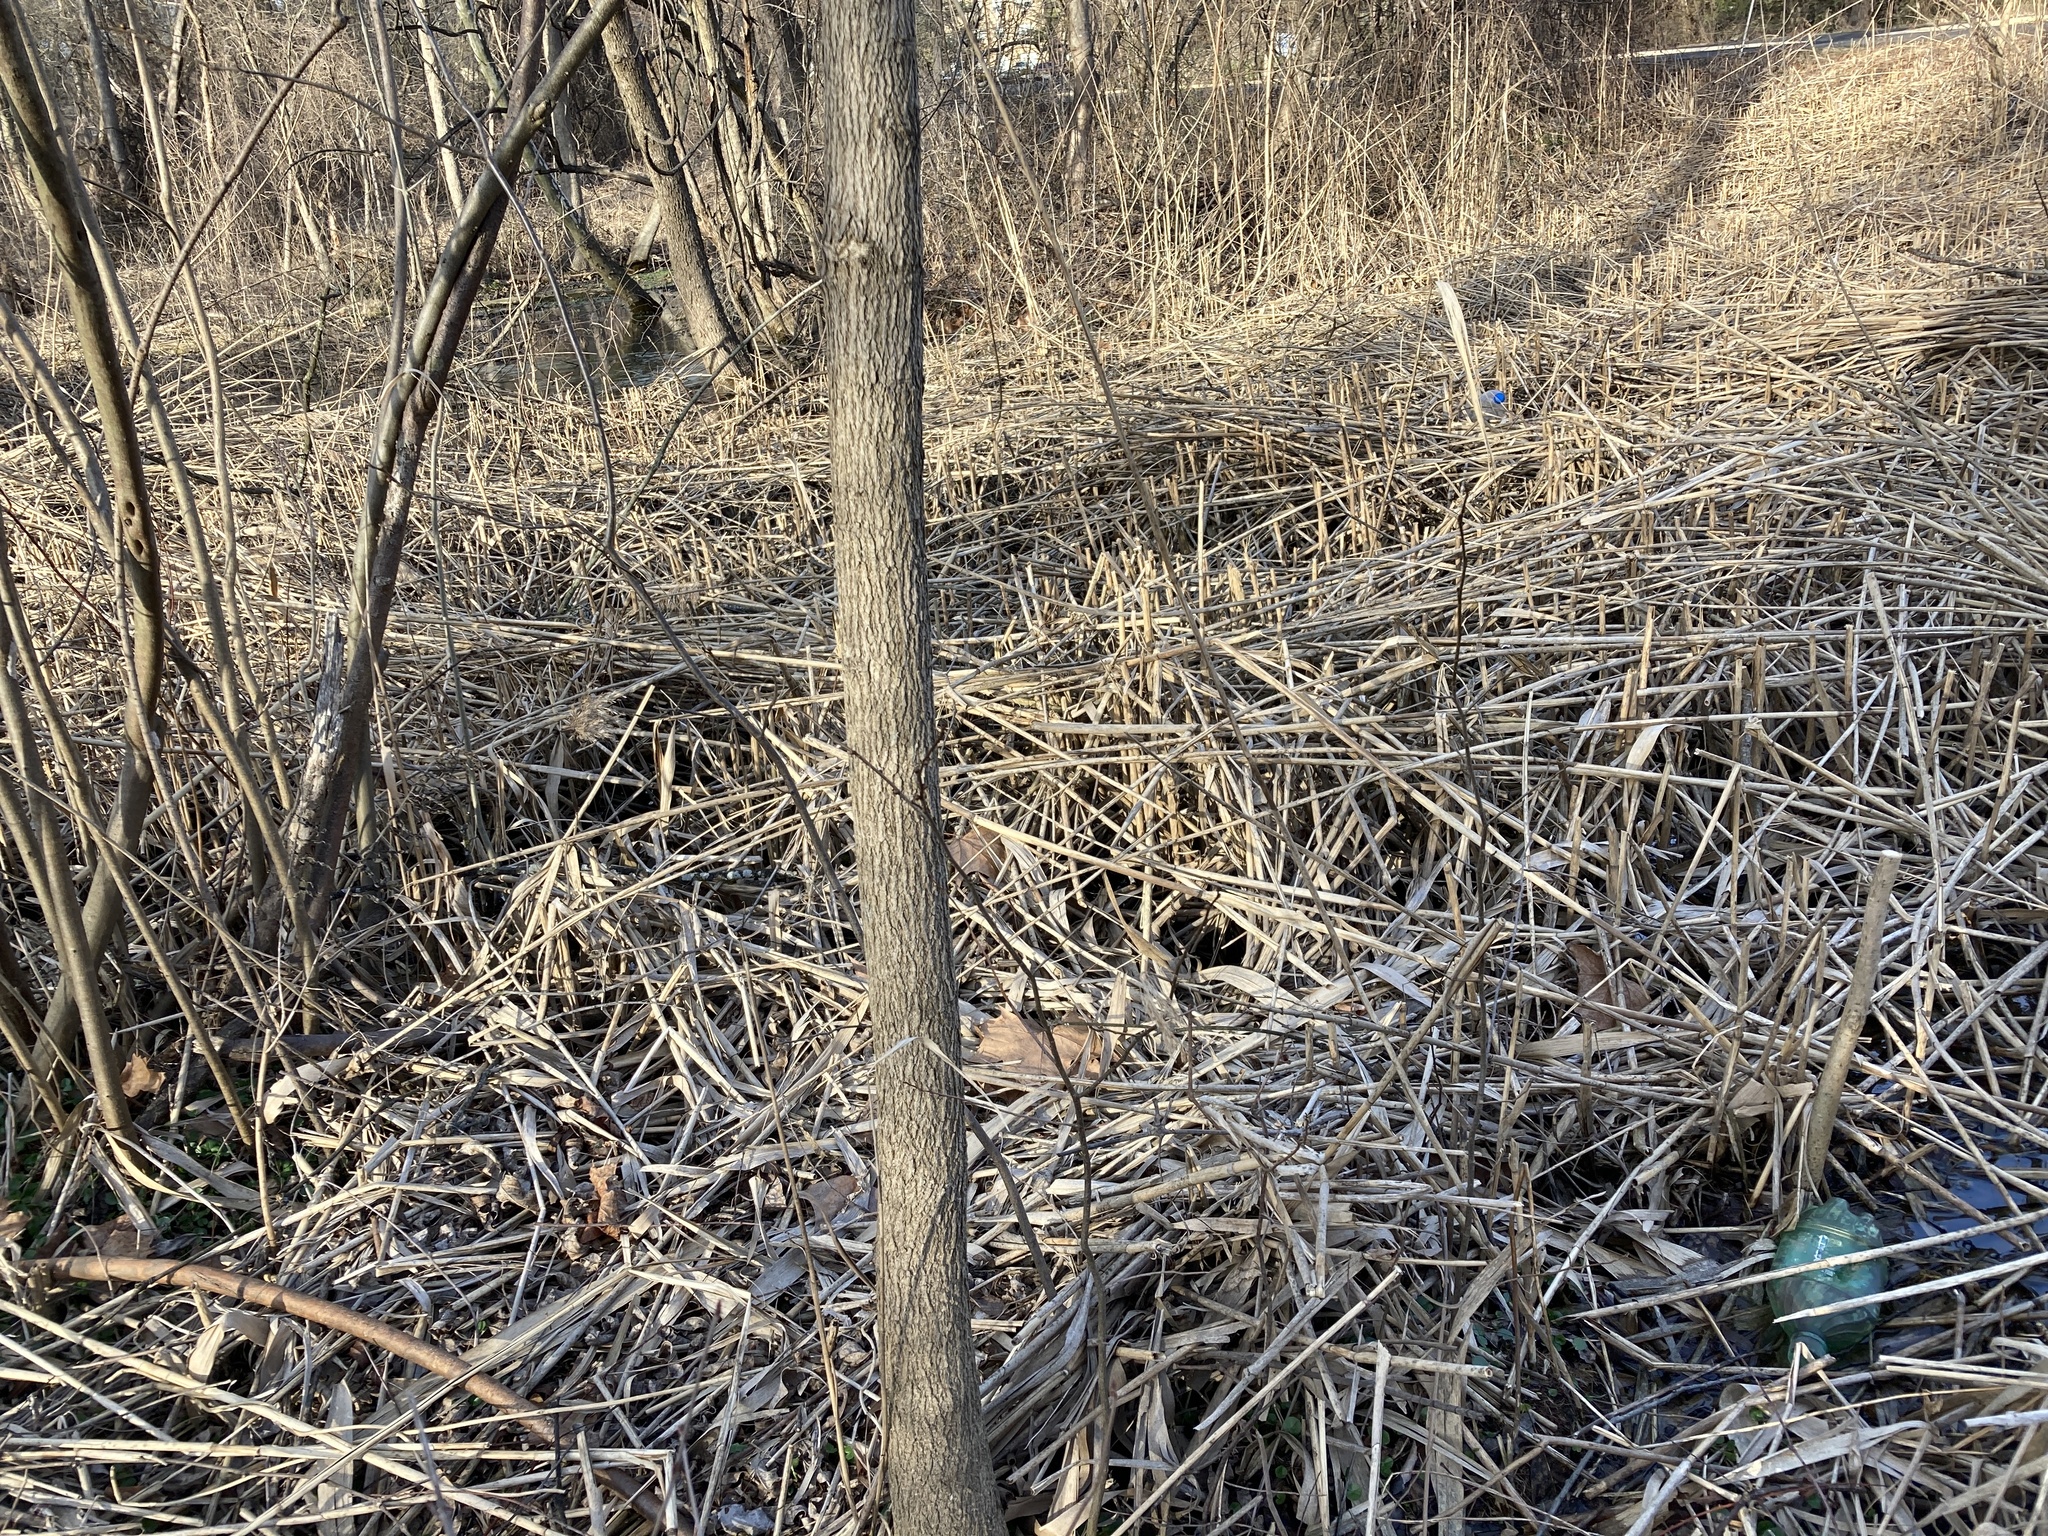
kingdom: Animalia
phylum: Chordata
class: Amphibia
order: Anura
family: Hylidae
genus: Pseudacris
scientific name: Pseudacris crucifer
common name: Spring peeper
